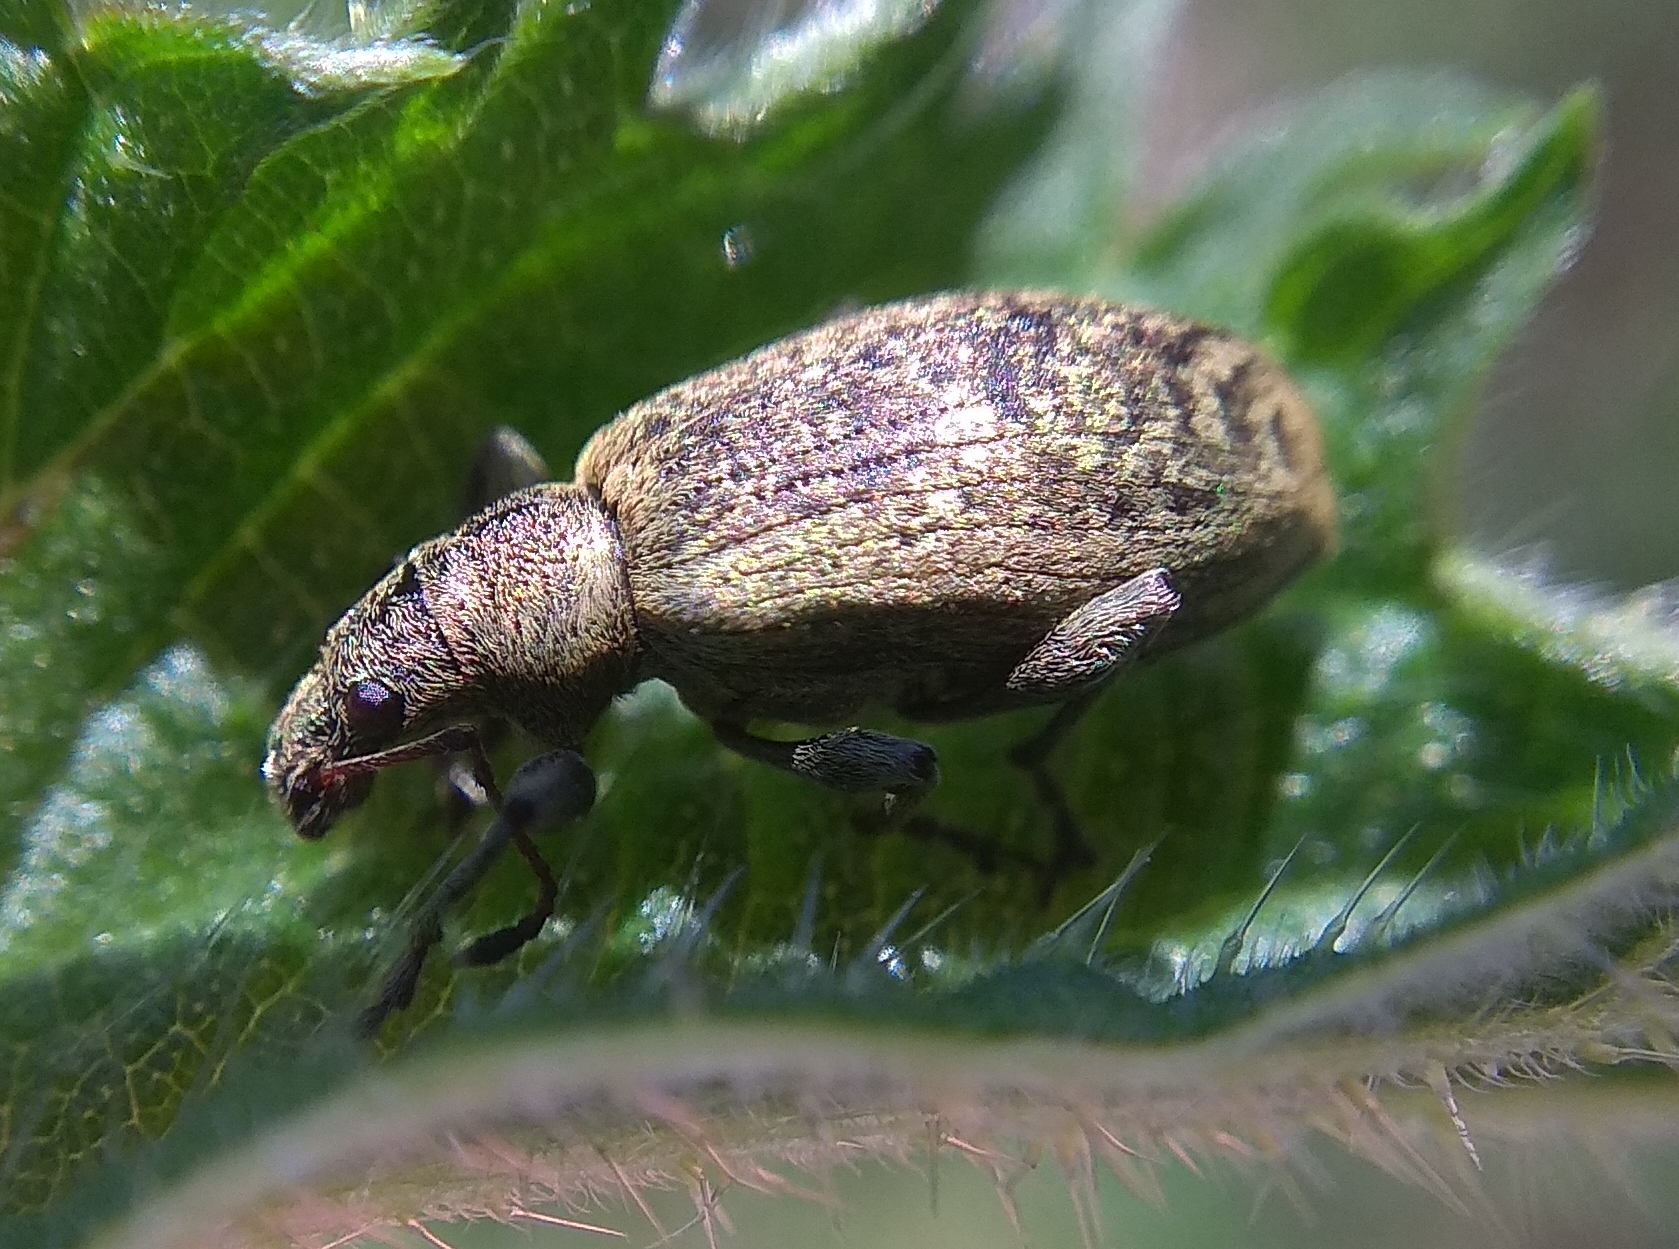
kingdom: Animalia
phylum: Arthropoda
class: Insecta
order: Coleoptera
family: Curculionidae
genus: Phyllobius
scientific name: Phyllobius pomaceus
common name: Green nettle weevil
